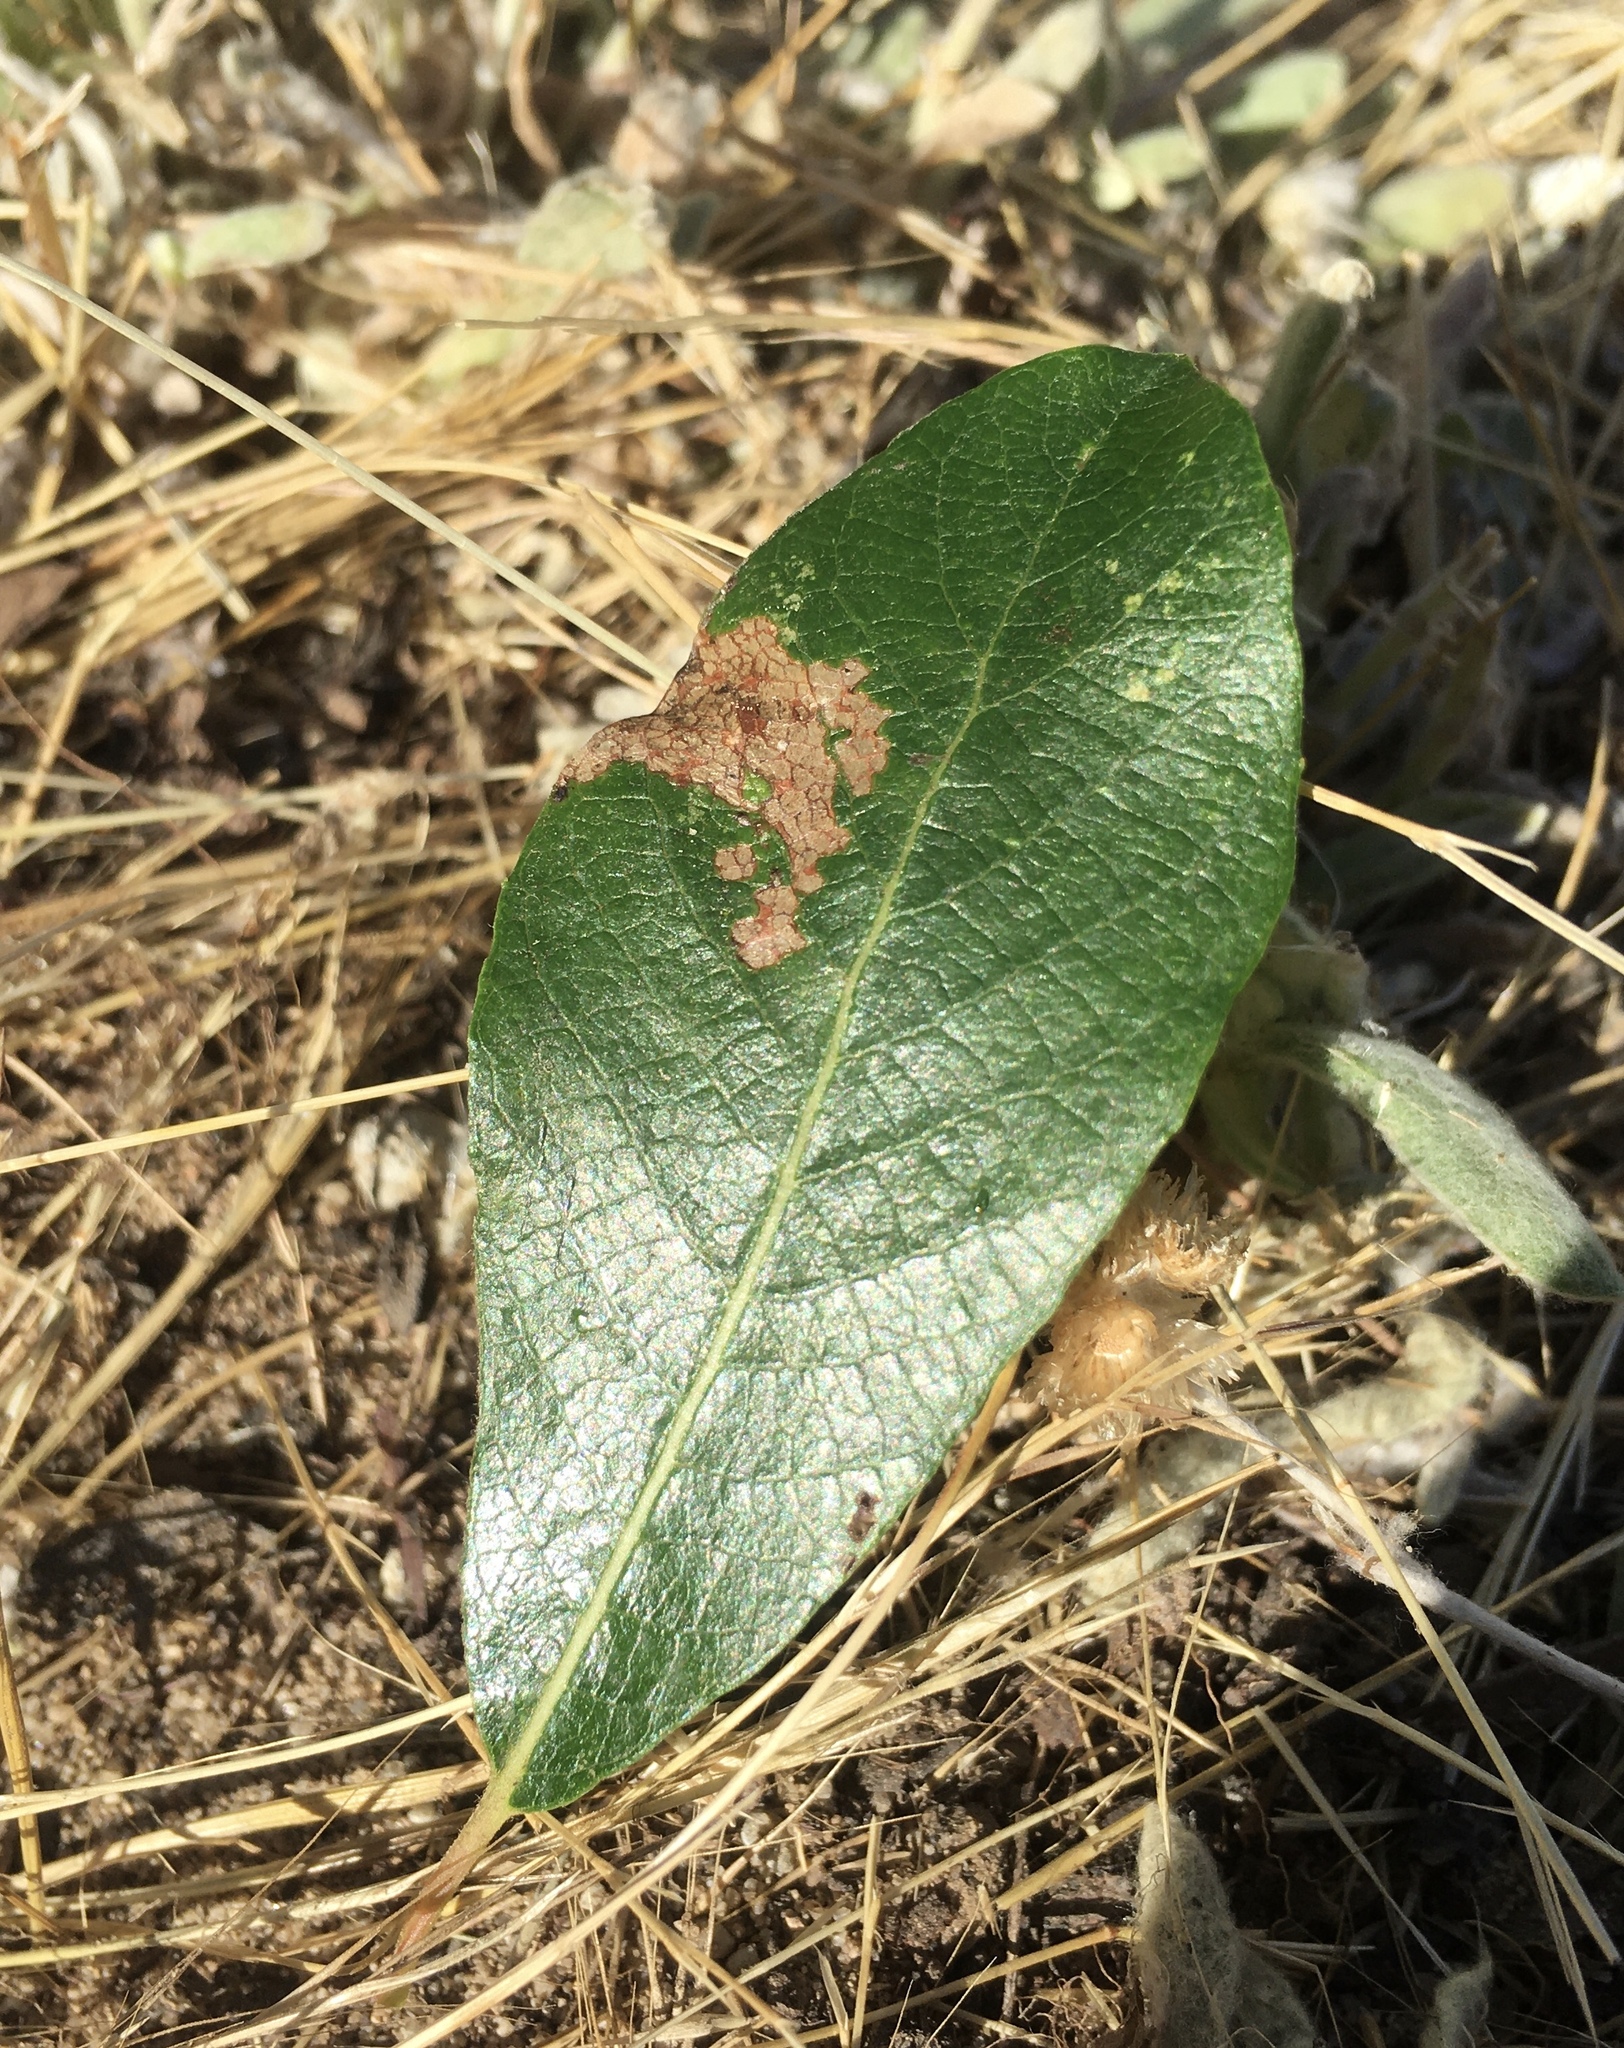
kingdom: Animalia
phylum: Arthropoda
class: Insecta
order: Coleoptera
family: Chrysomelidae
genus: Plagiodera
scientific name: Plagiodera californica
